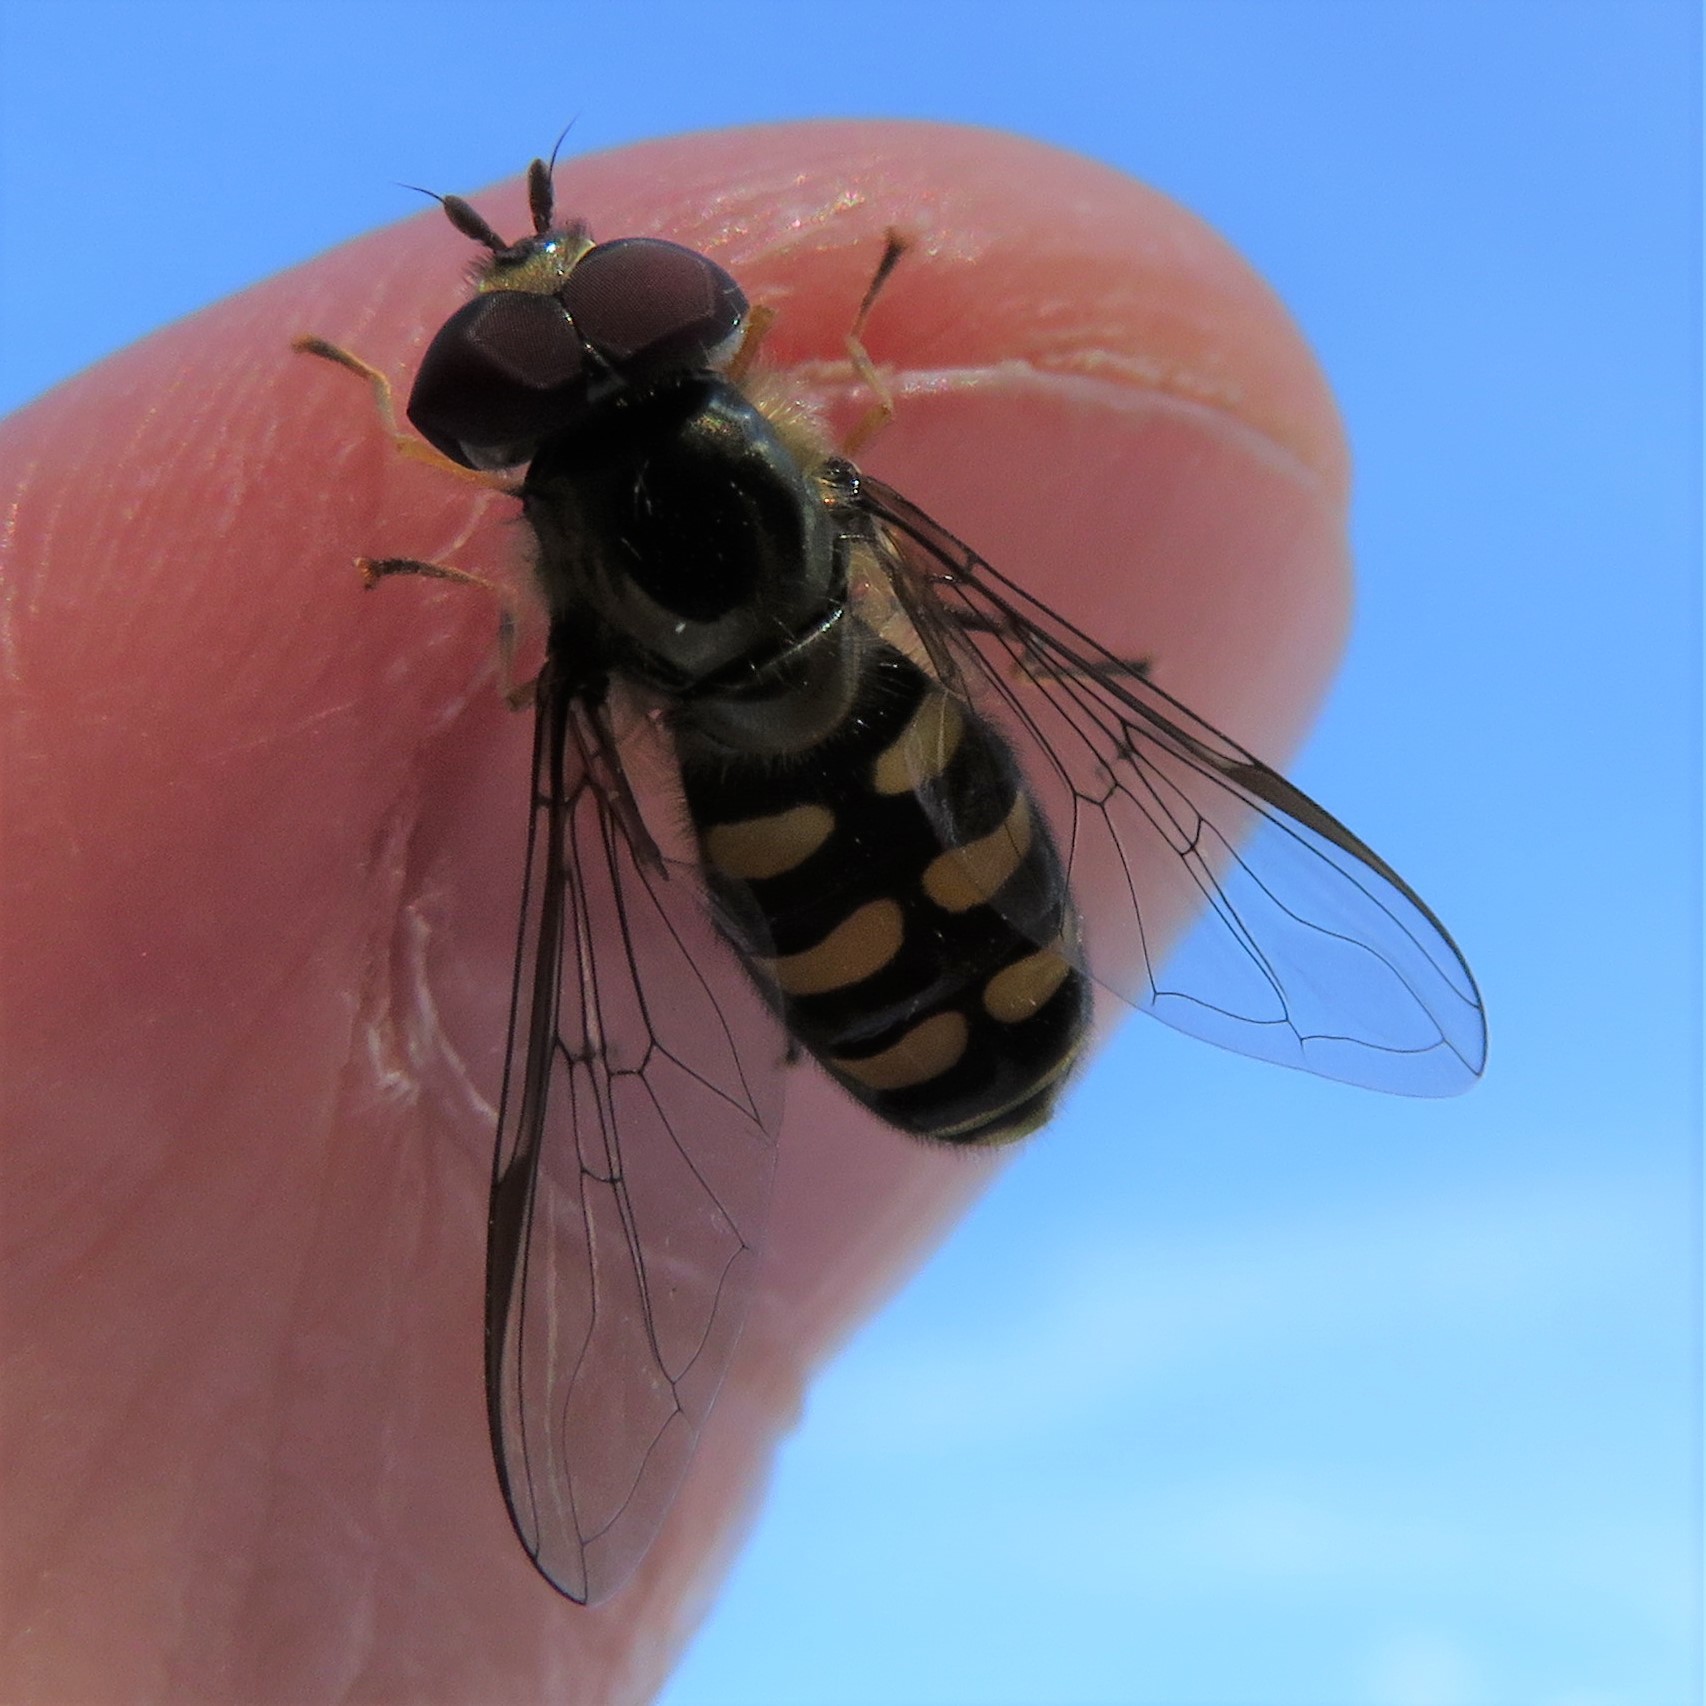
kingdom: Animalia
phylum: Arthropoda
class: Insecta
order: Diptera
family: Syrphidae
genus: Lapposyrphus
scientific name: Lapposyrphus lapponicus
